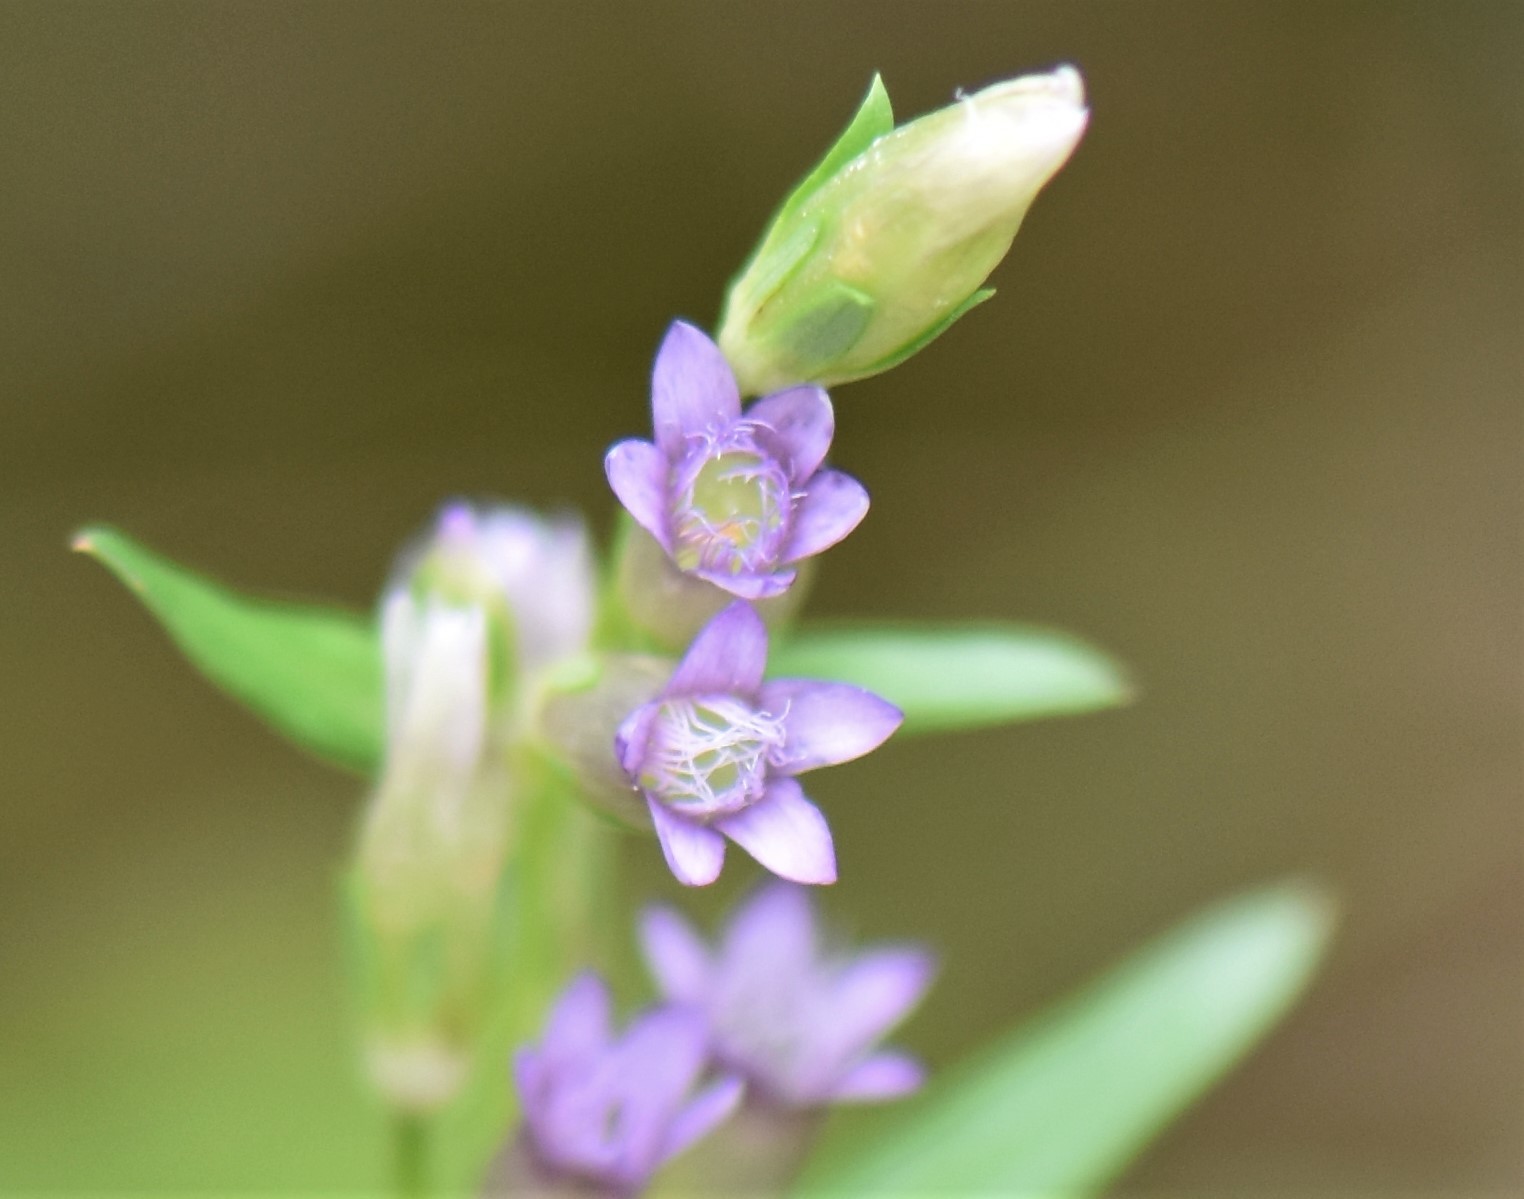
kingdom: Plantae
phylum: Tracheophyta
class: Magnoliopsida
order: Gentianales
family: Gentianaceae
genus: Gentianella
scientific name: Gentianella amarella
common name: Autumn gentian
